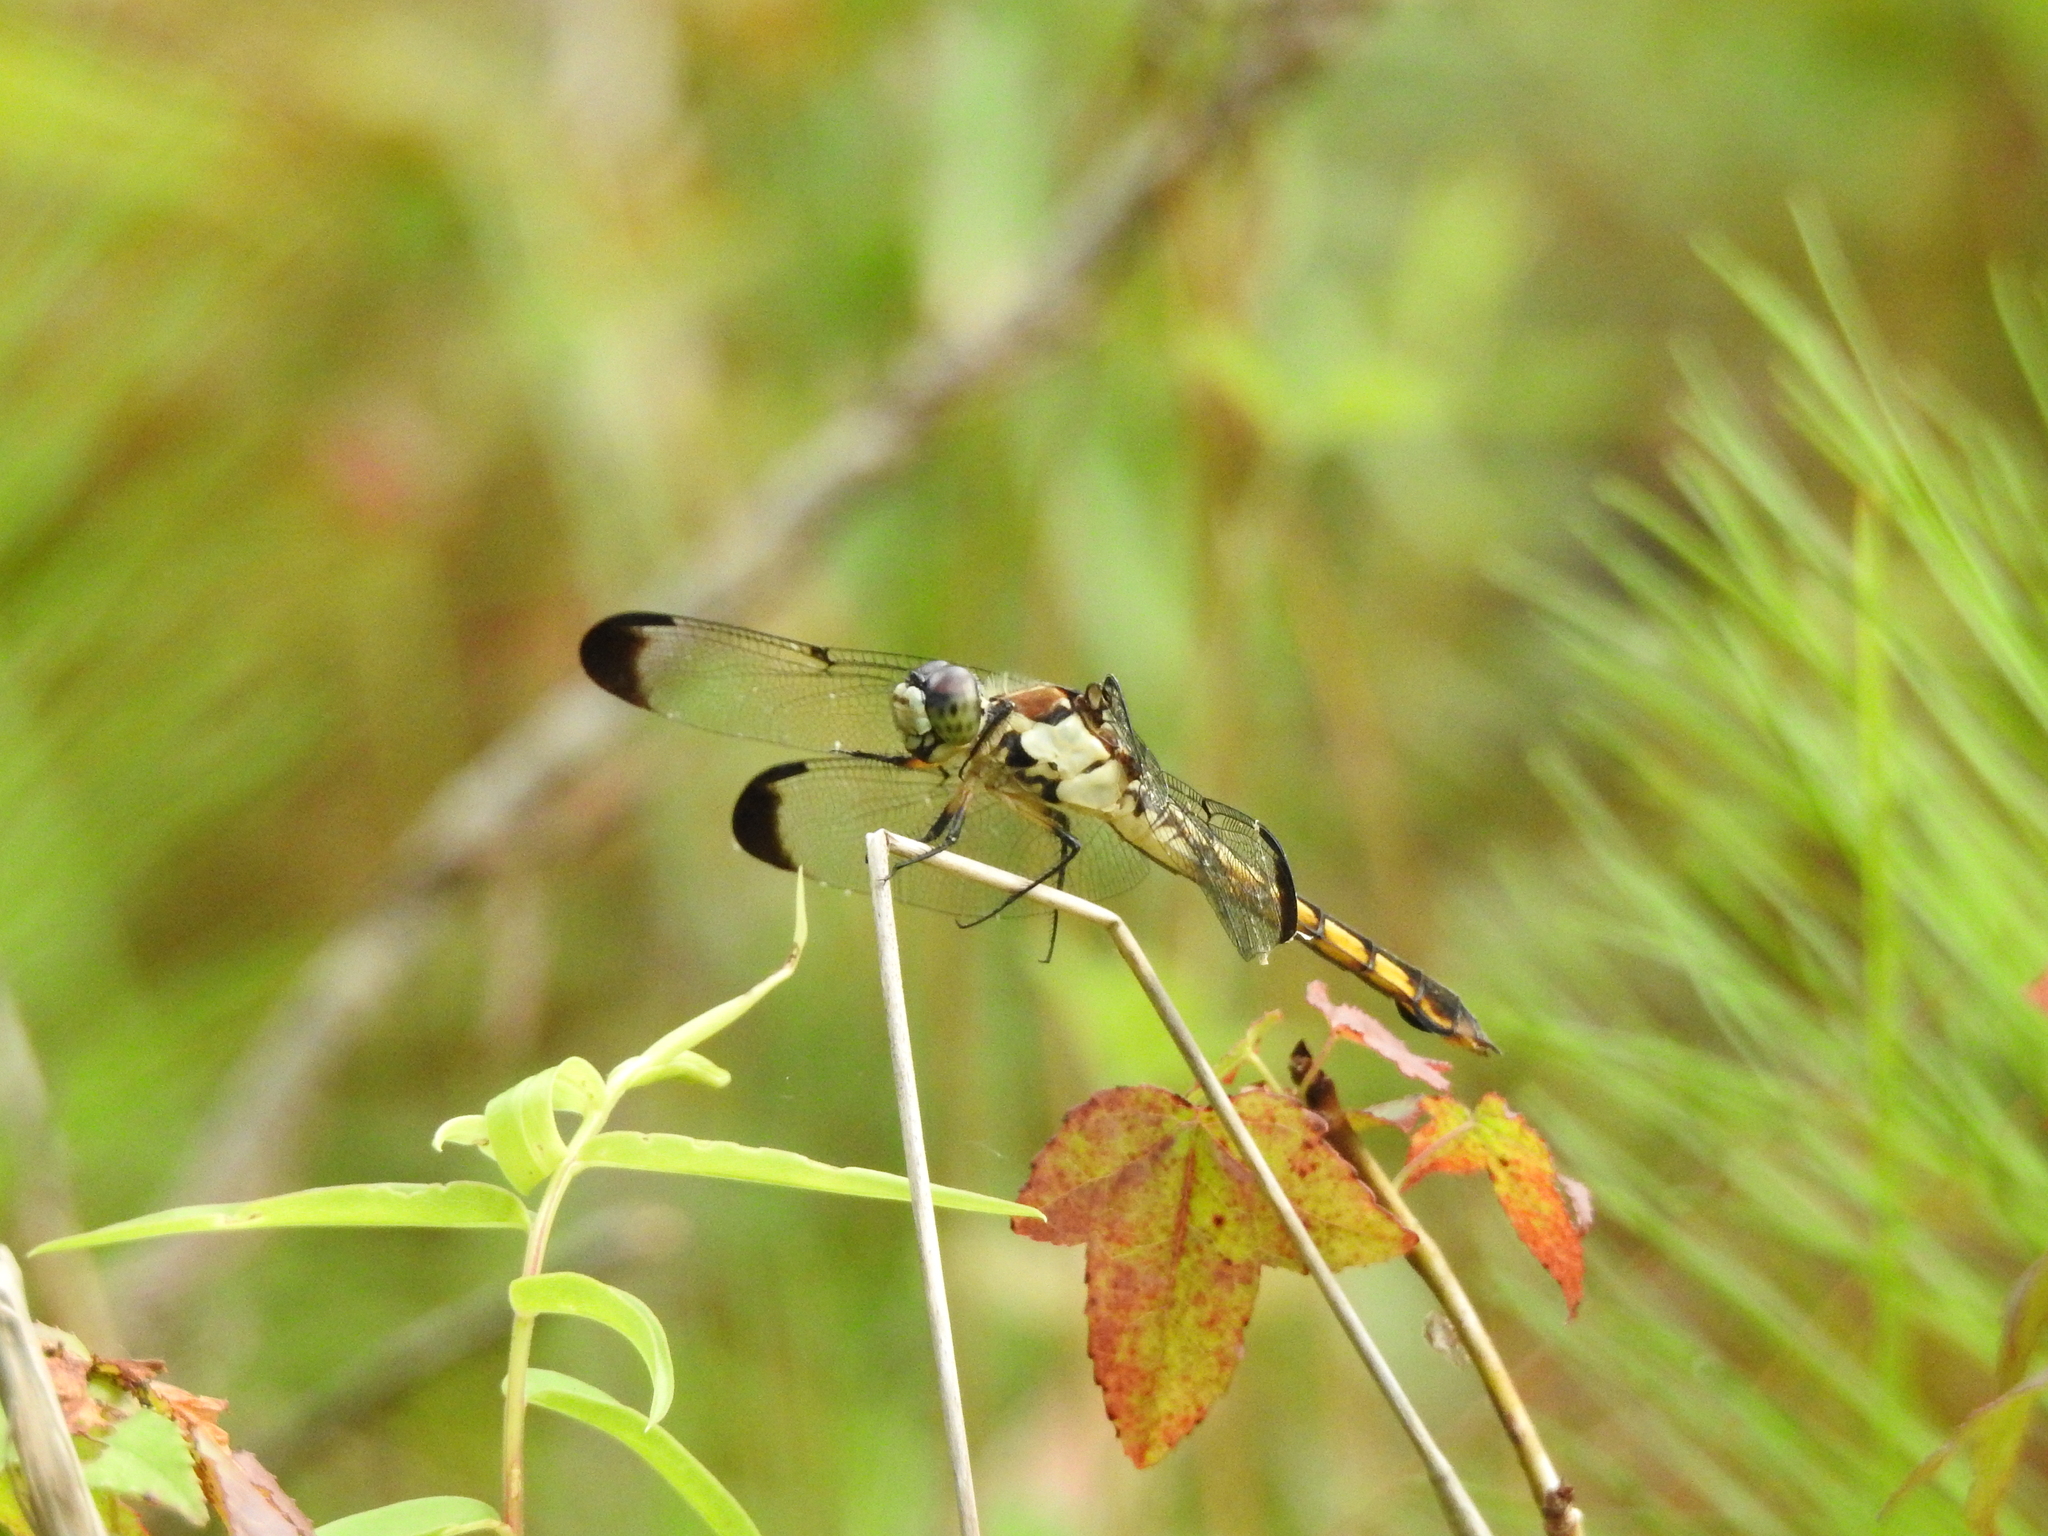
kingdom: Animalia
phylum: Arthropoda
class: Insecta
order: Odonata
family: Libellulidae
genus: Libellula
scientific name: Libellula vibrans
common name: Great blue skimmer
